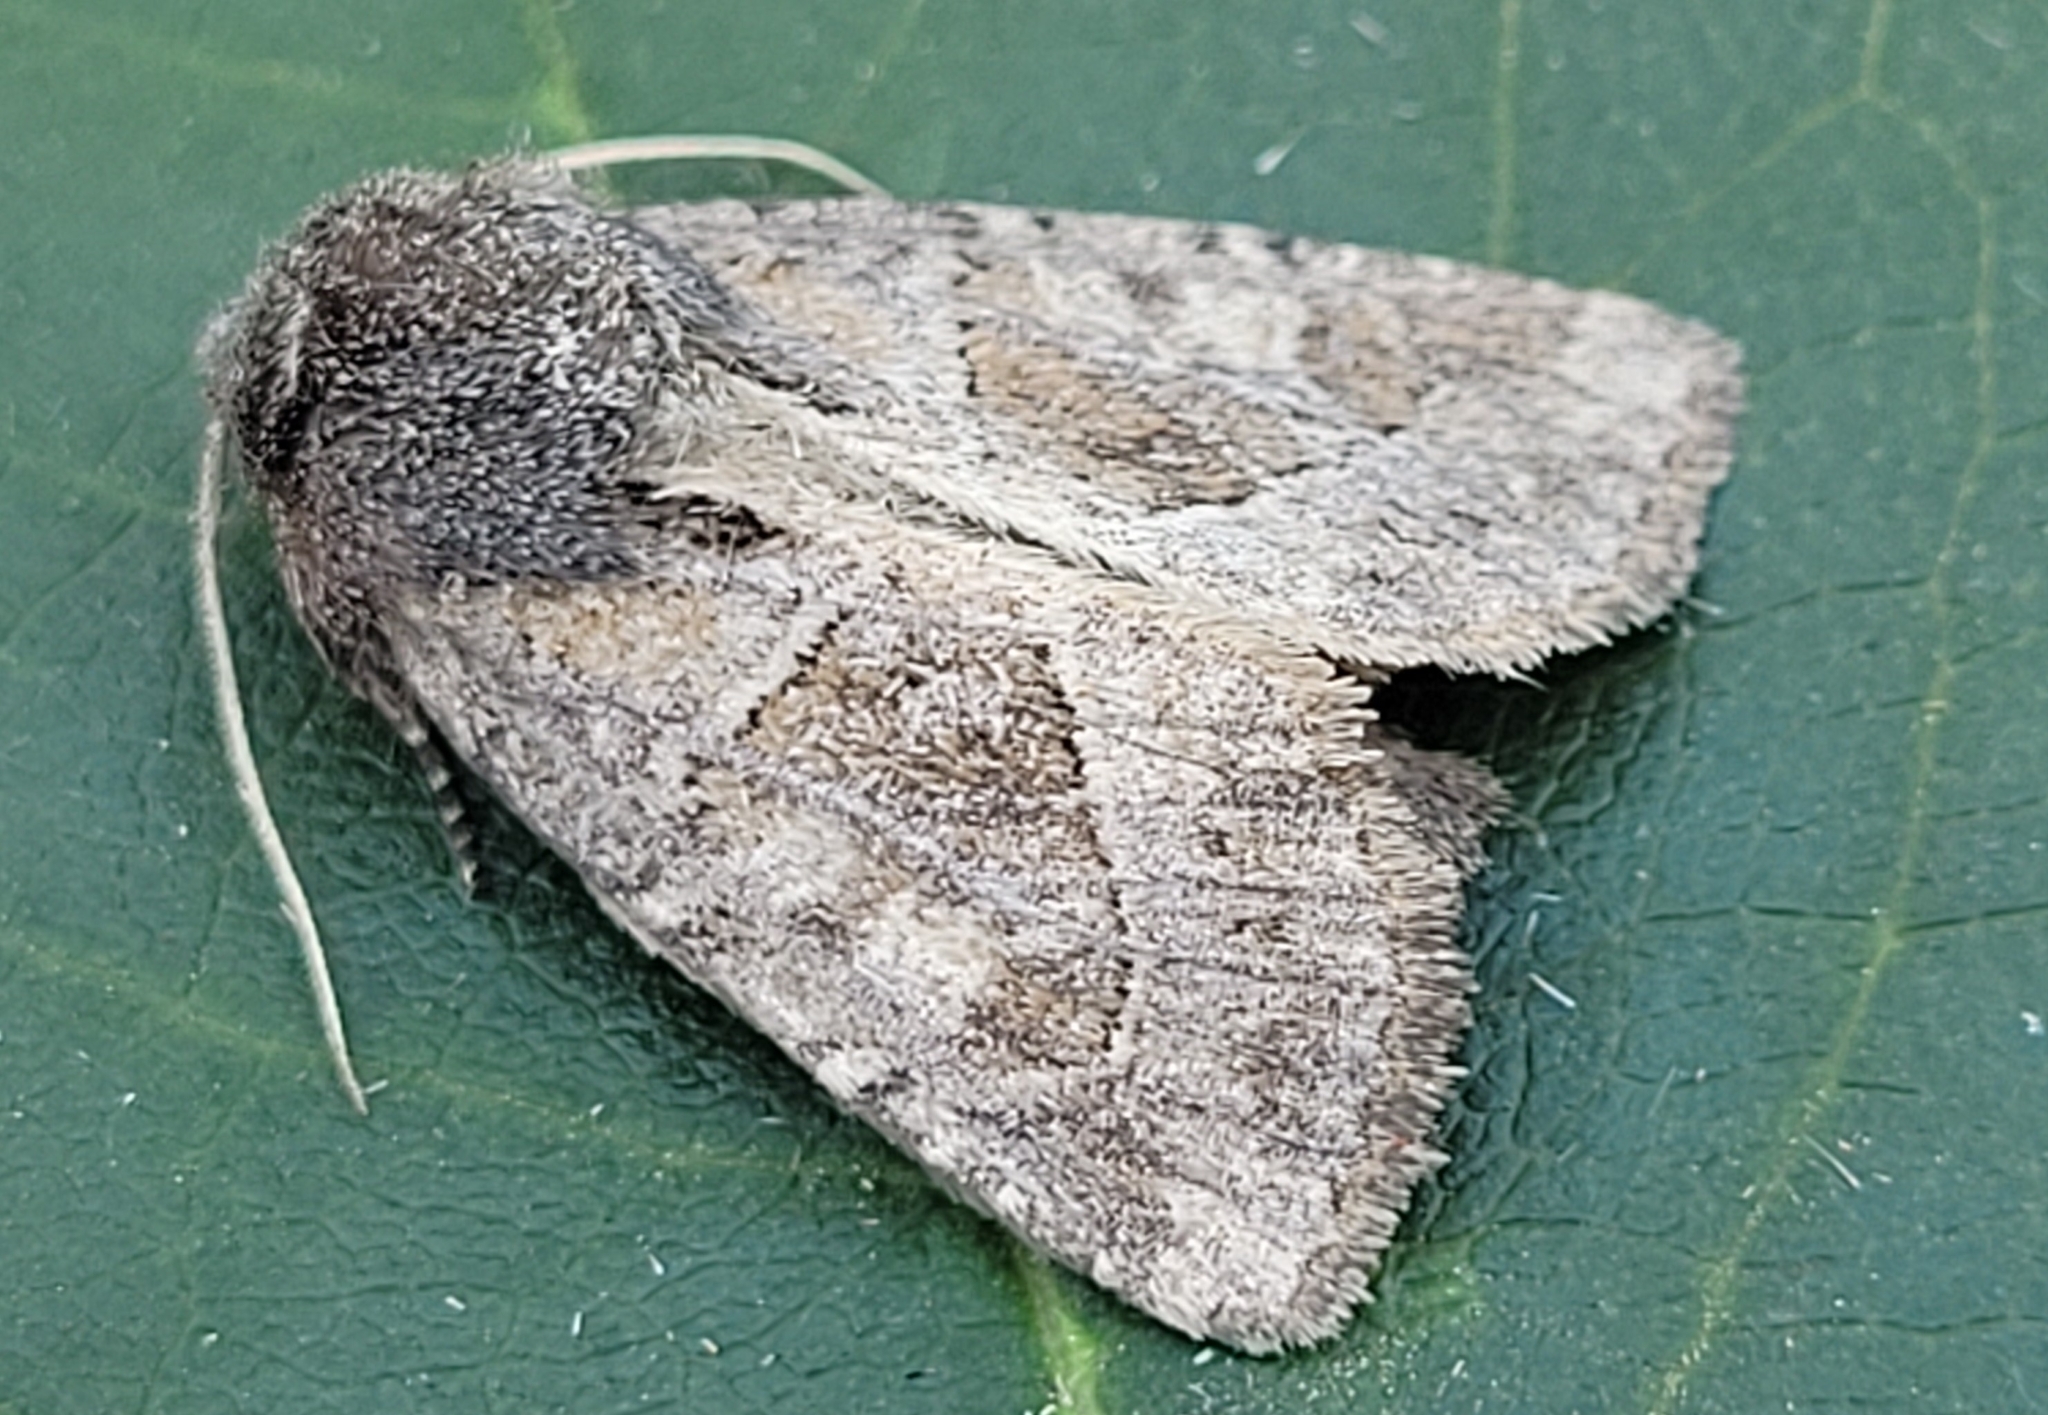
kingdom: Animalia
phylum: Arthropoda
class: Insecta
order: Lepidoptera
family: Noctuidae
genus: Oligia
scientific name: Oligia obtusa
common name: Obtuse sedge borer
